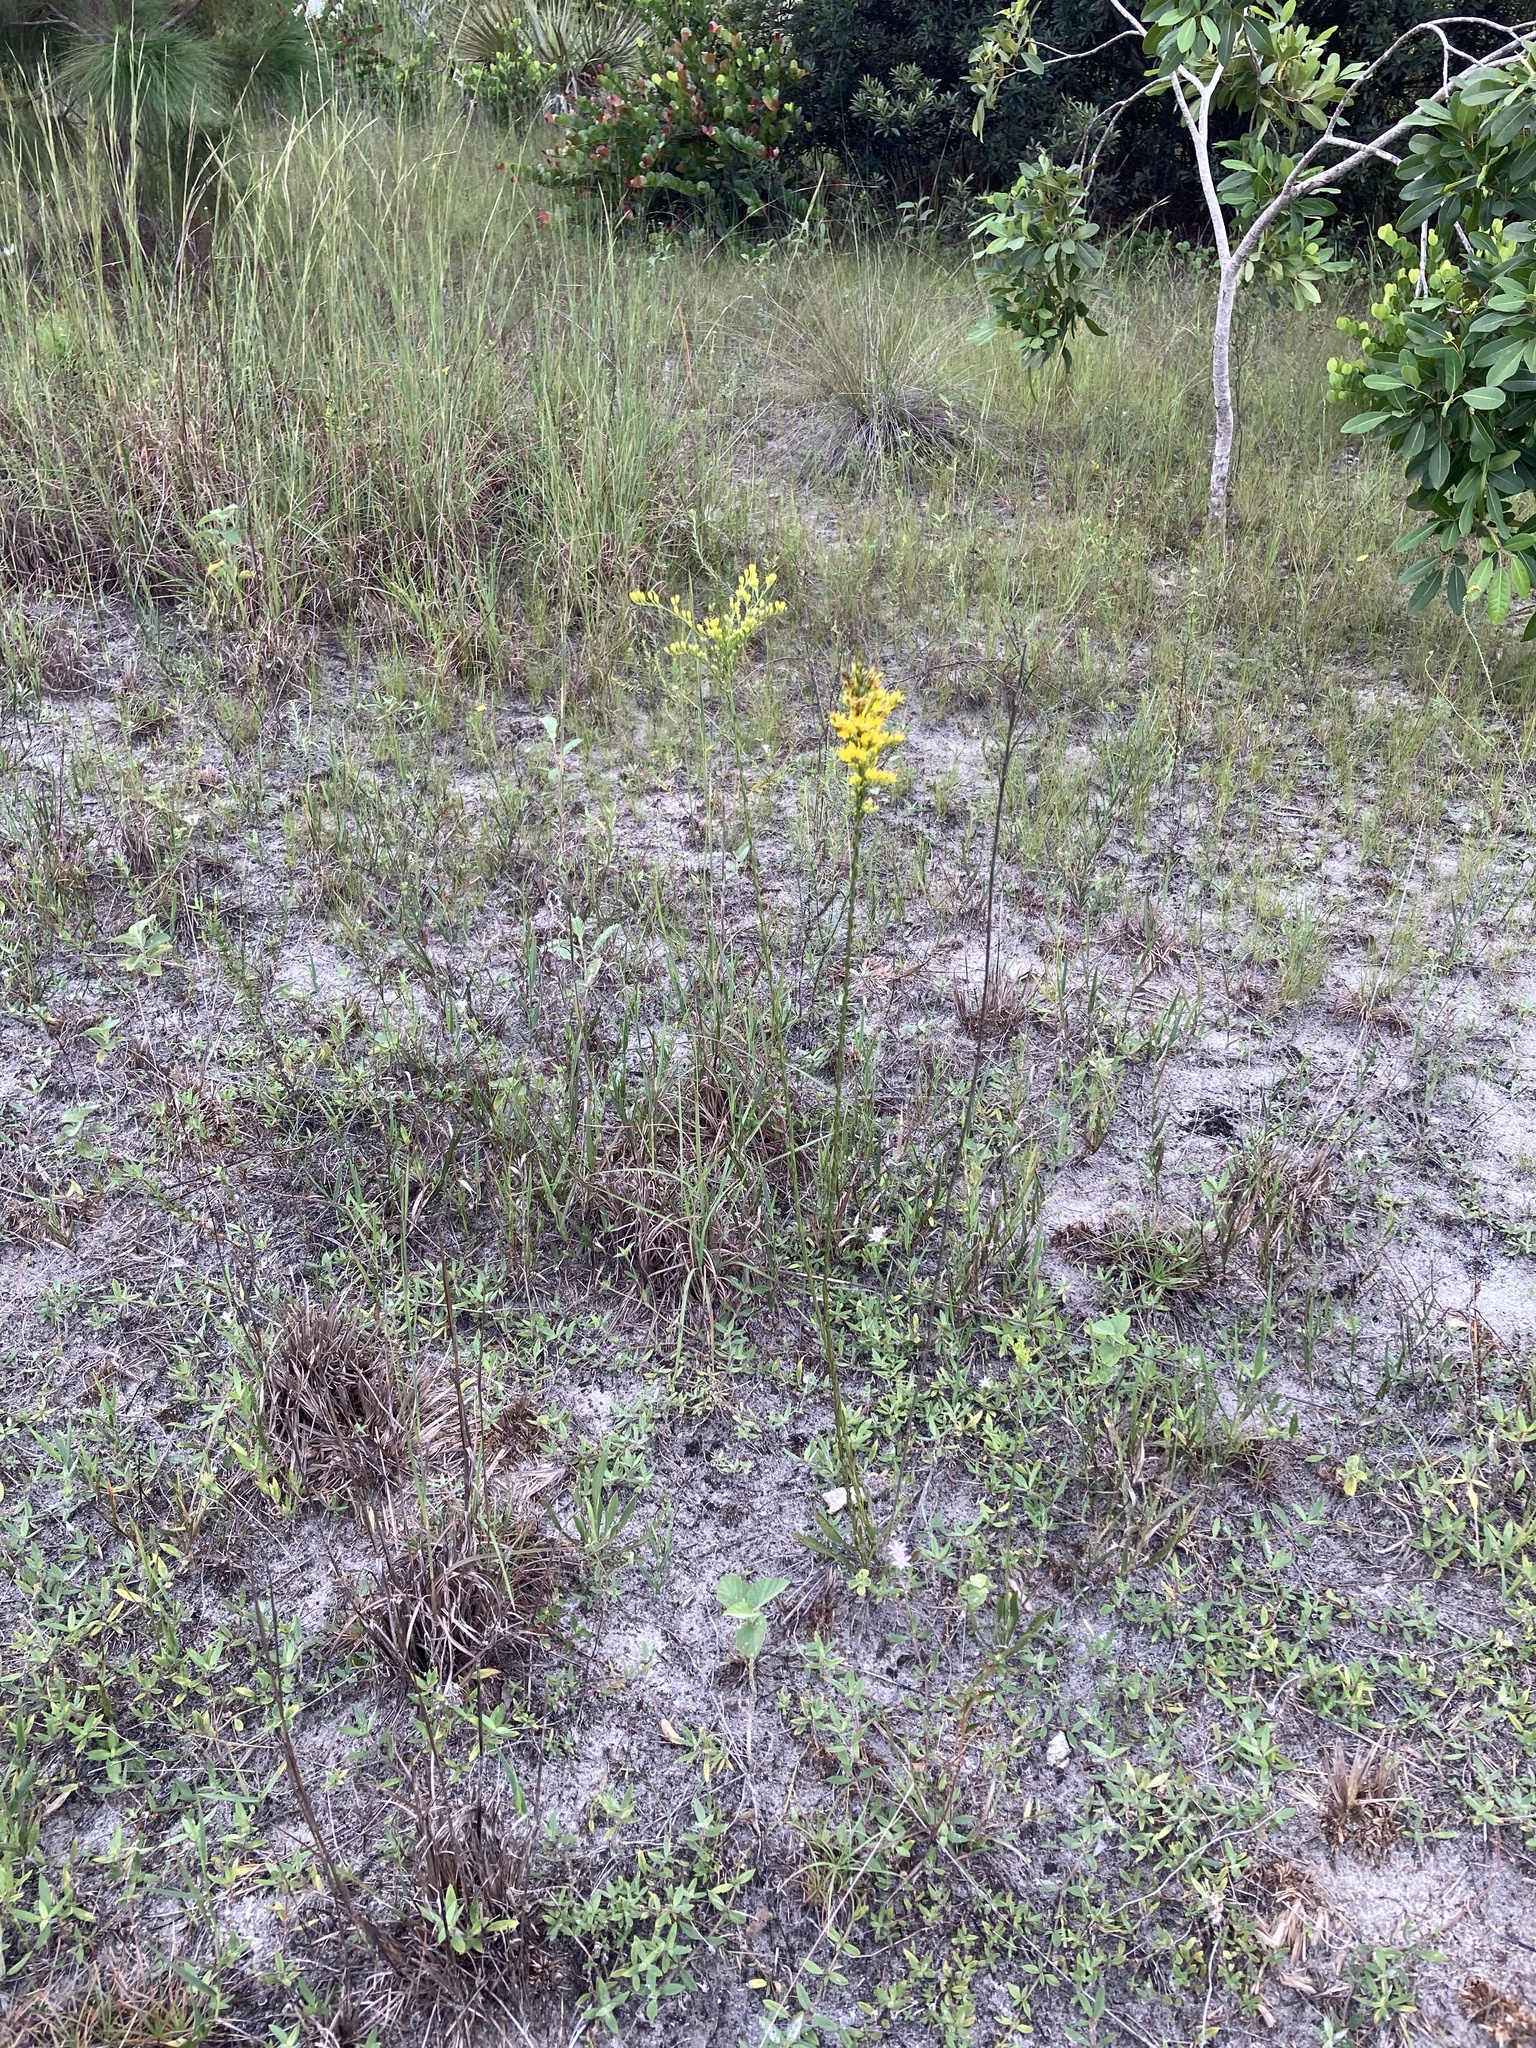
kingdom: Plantae
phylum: Tracheophyta
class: Magnoliopsida
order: Asterales
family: Asteraceae
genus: Solidago
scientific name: Solidago virgata
